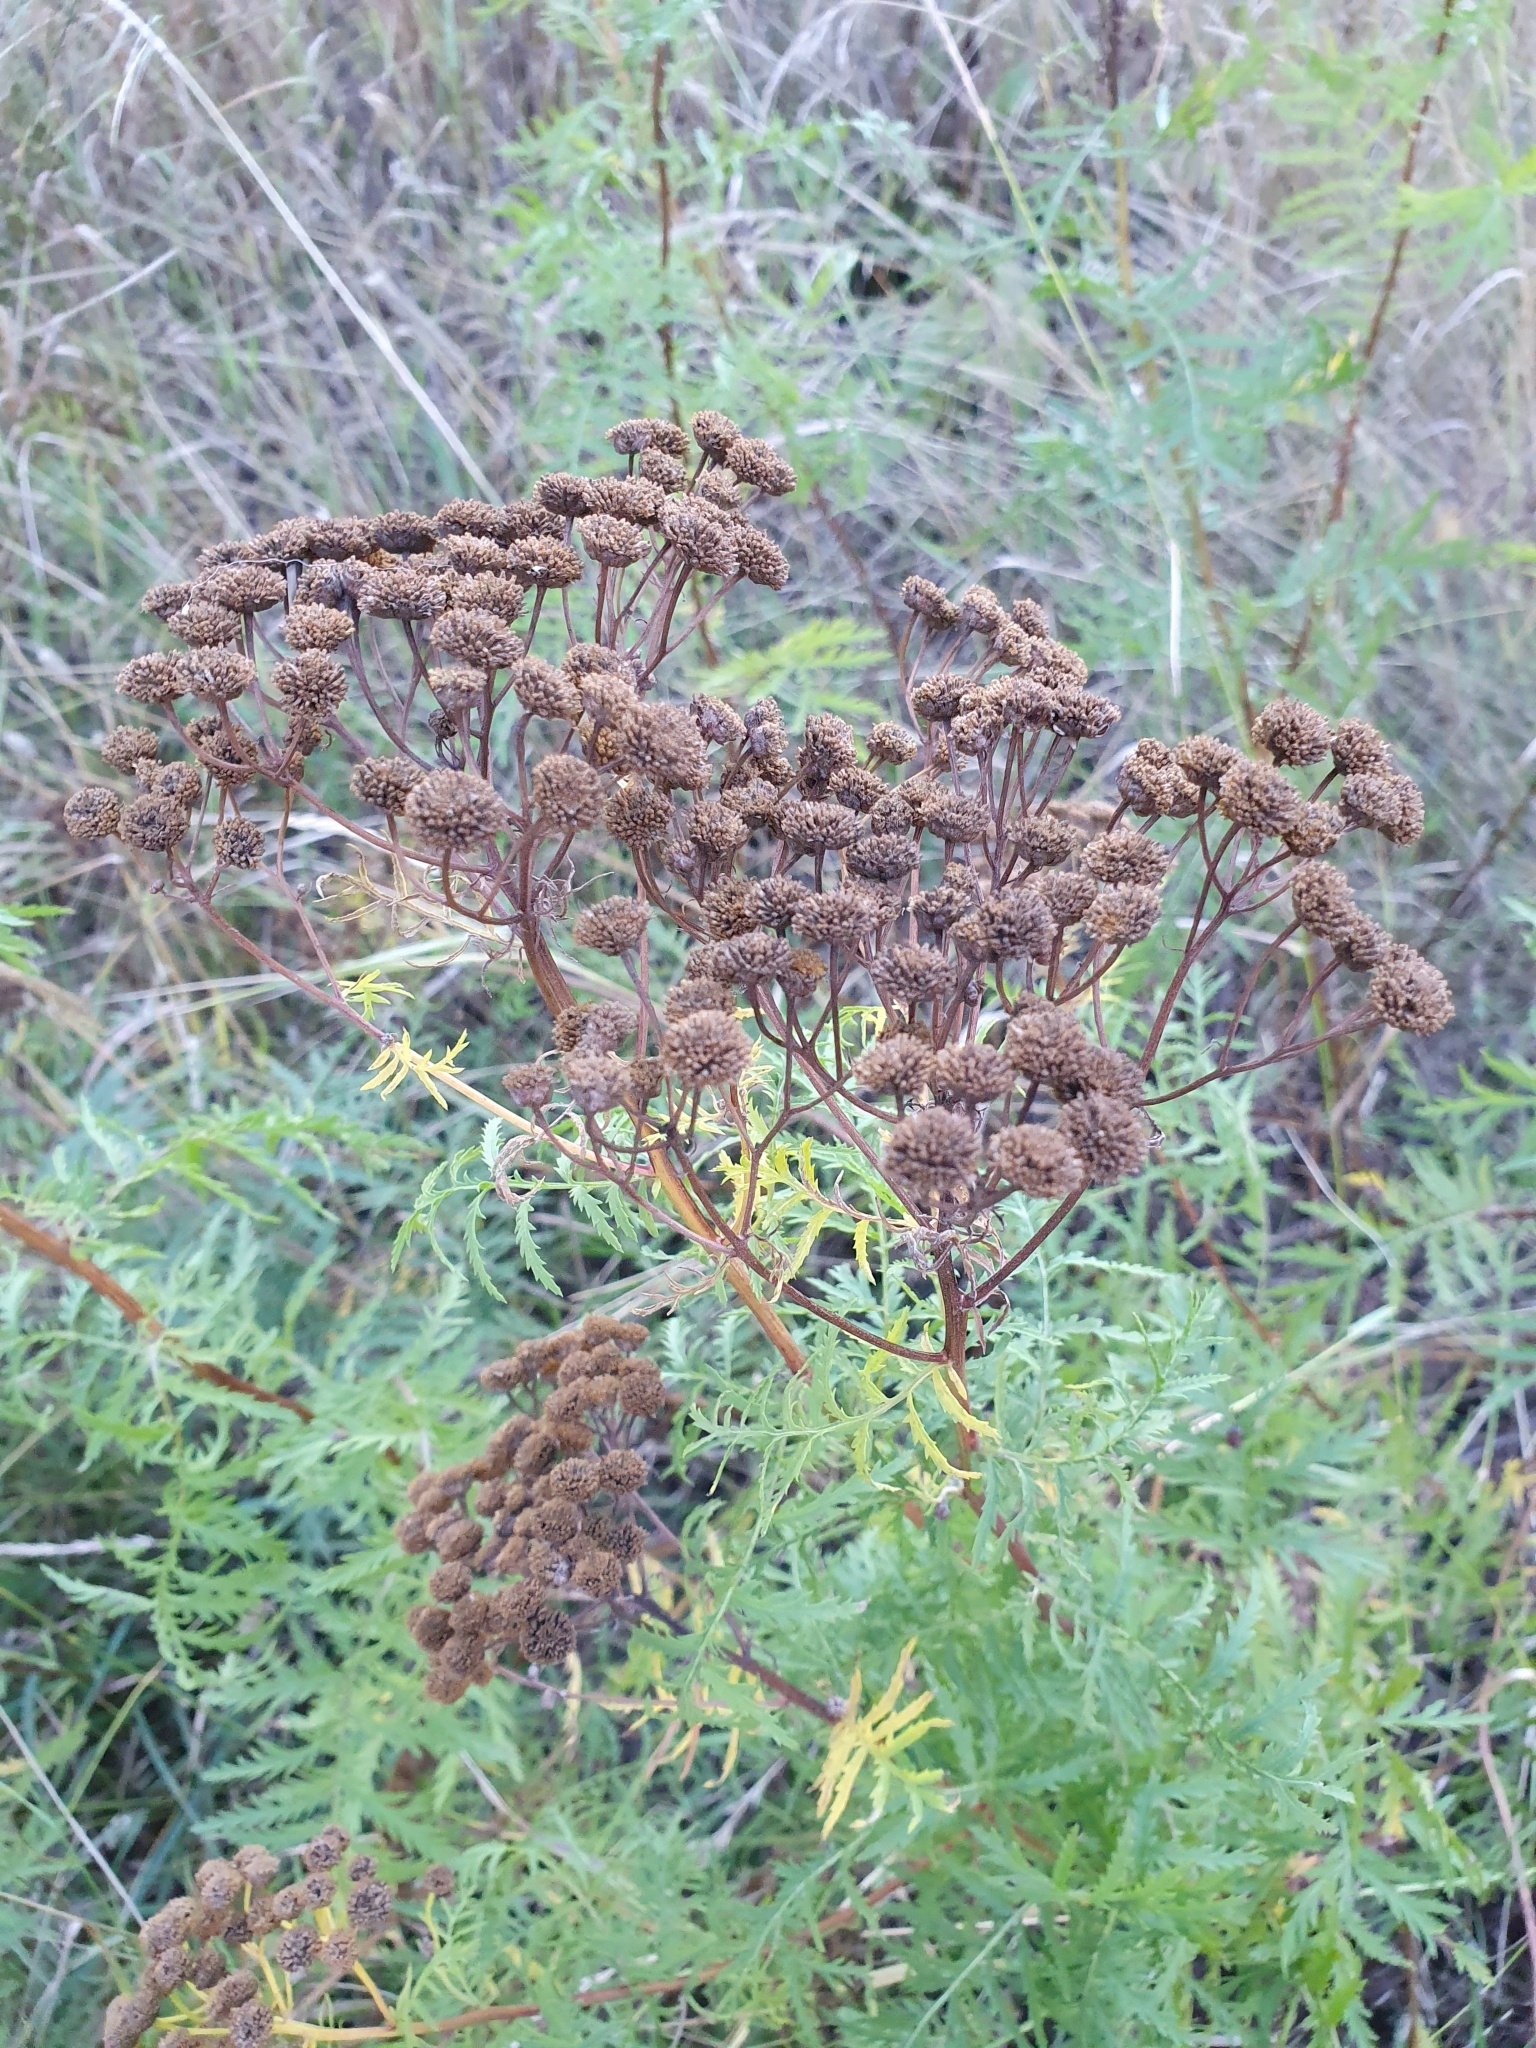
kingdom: Plantae
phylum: Tracheophyta
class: Magnoliopsida
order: Asterales
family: Asteraceae
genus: Tanacetum
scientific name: Tanacetum vulgare
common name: Common tansy
